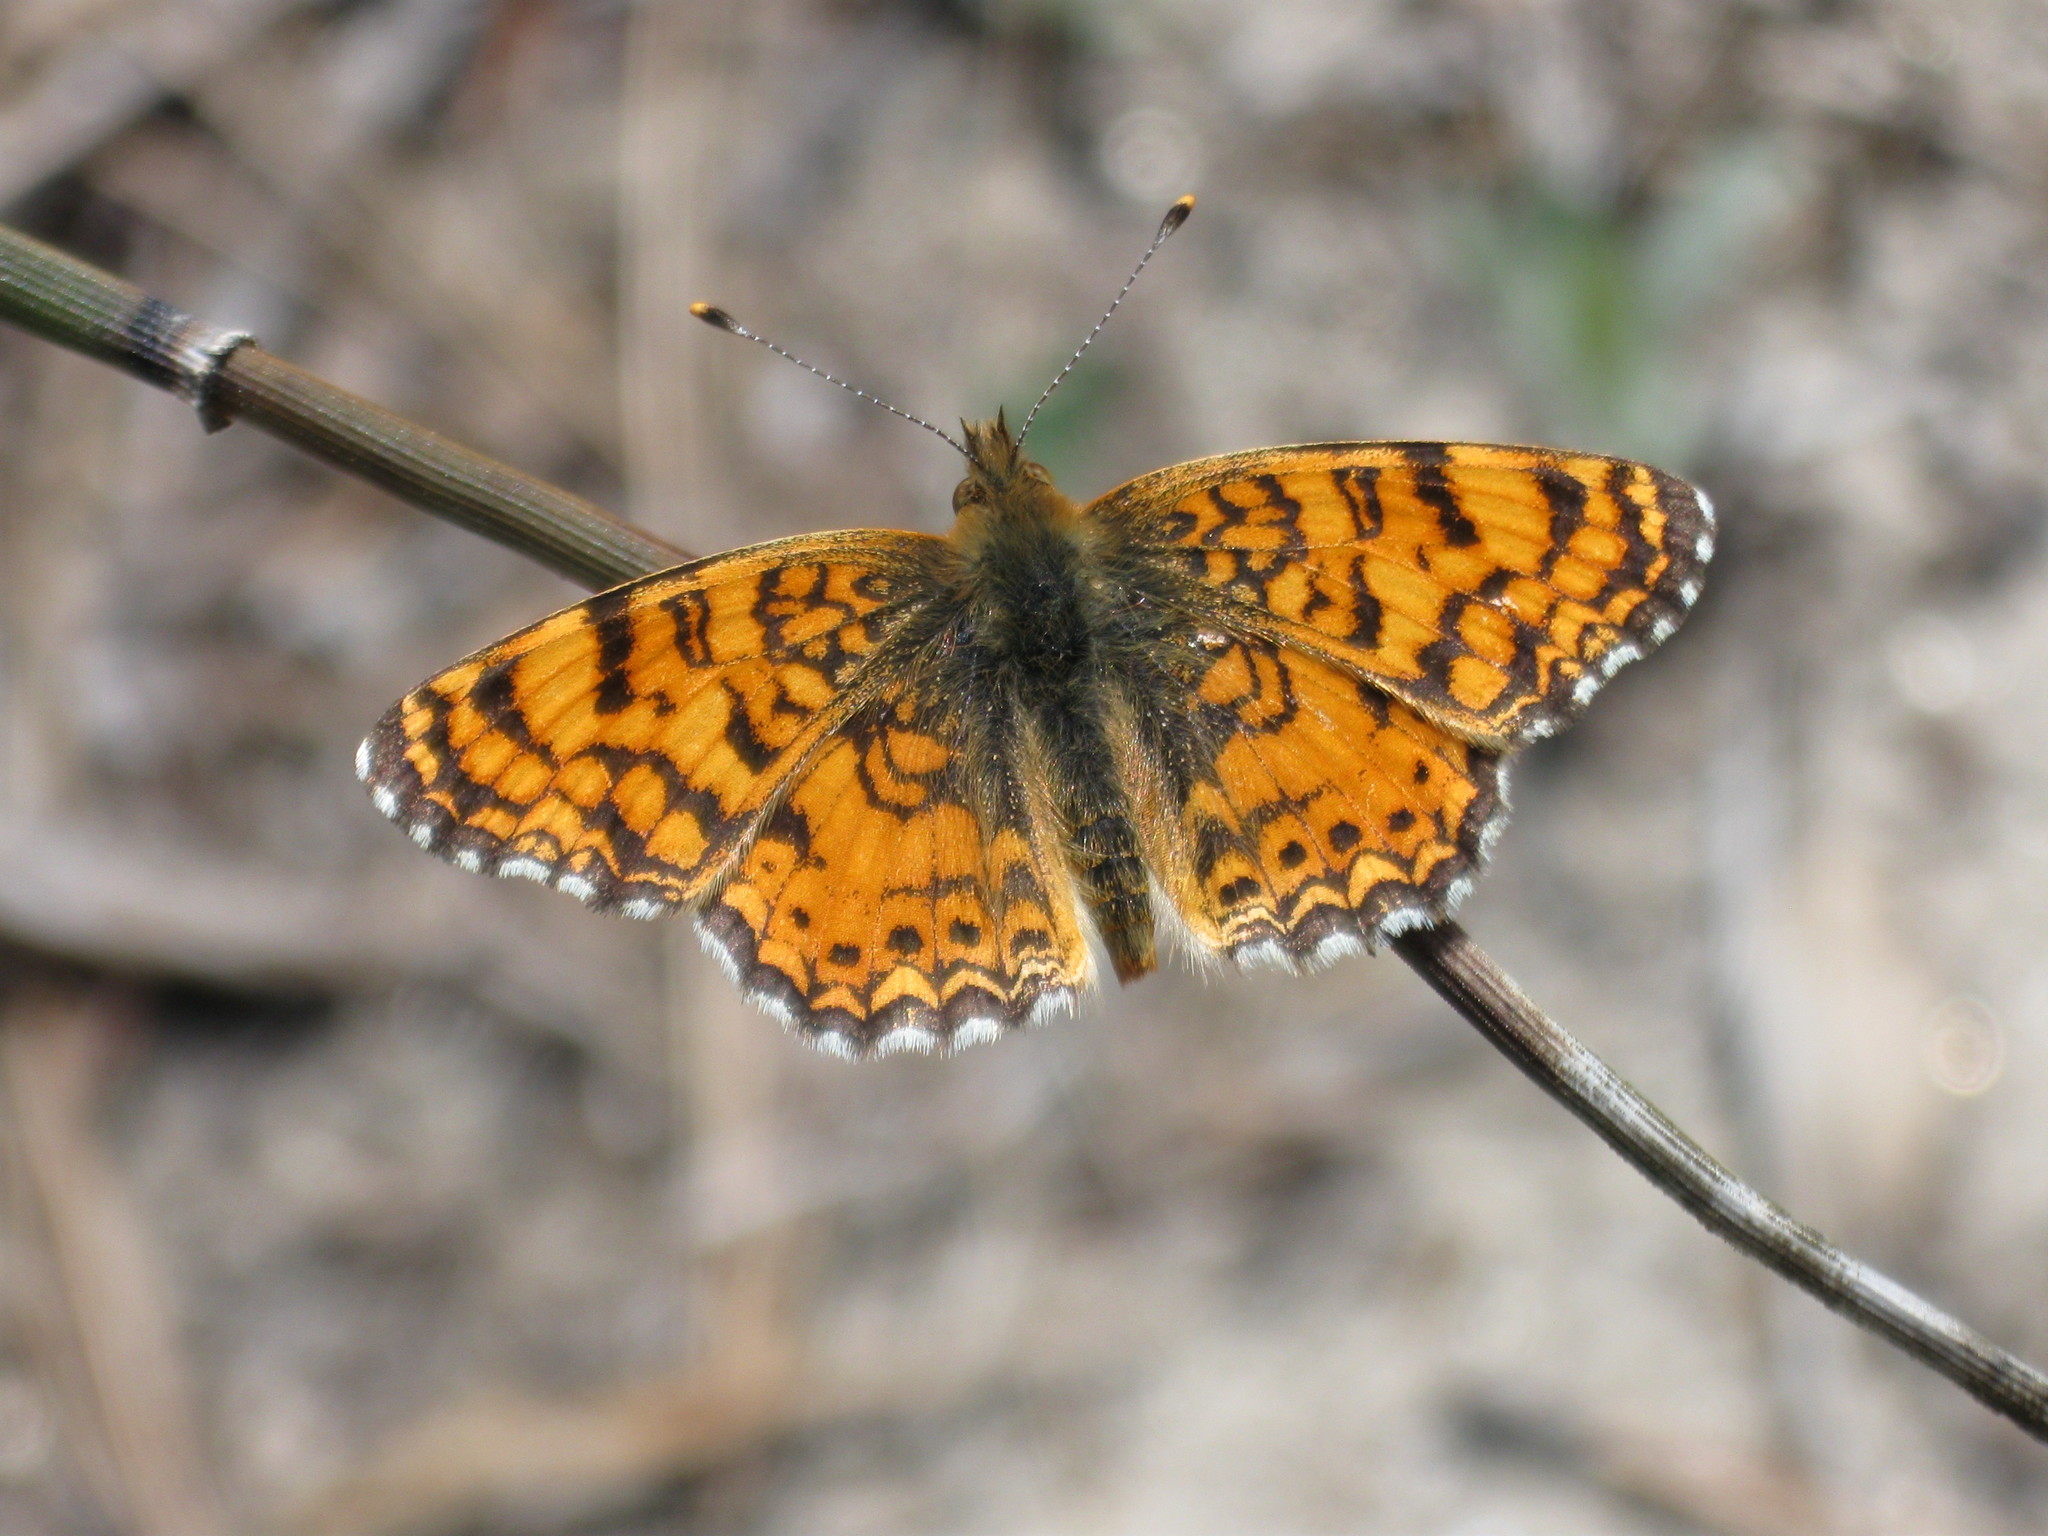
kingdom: Animalia
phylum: Arthropoda
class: Insecta
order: Lepidoptera
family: Nymphalidae
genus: Eresia
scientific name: Eresia aveyrona
